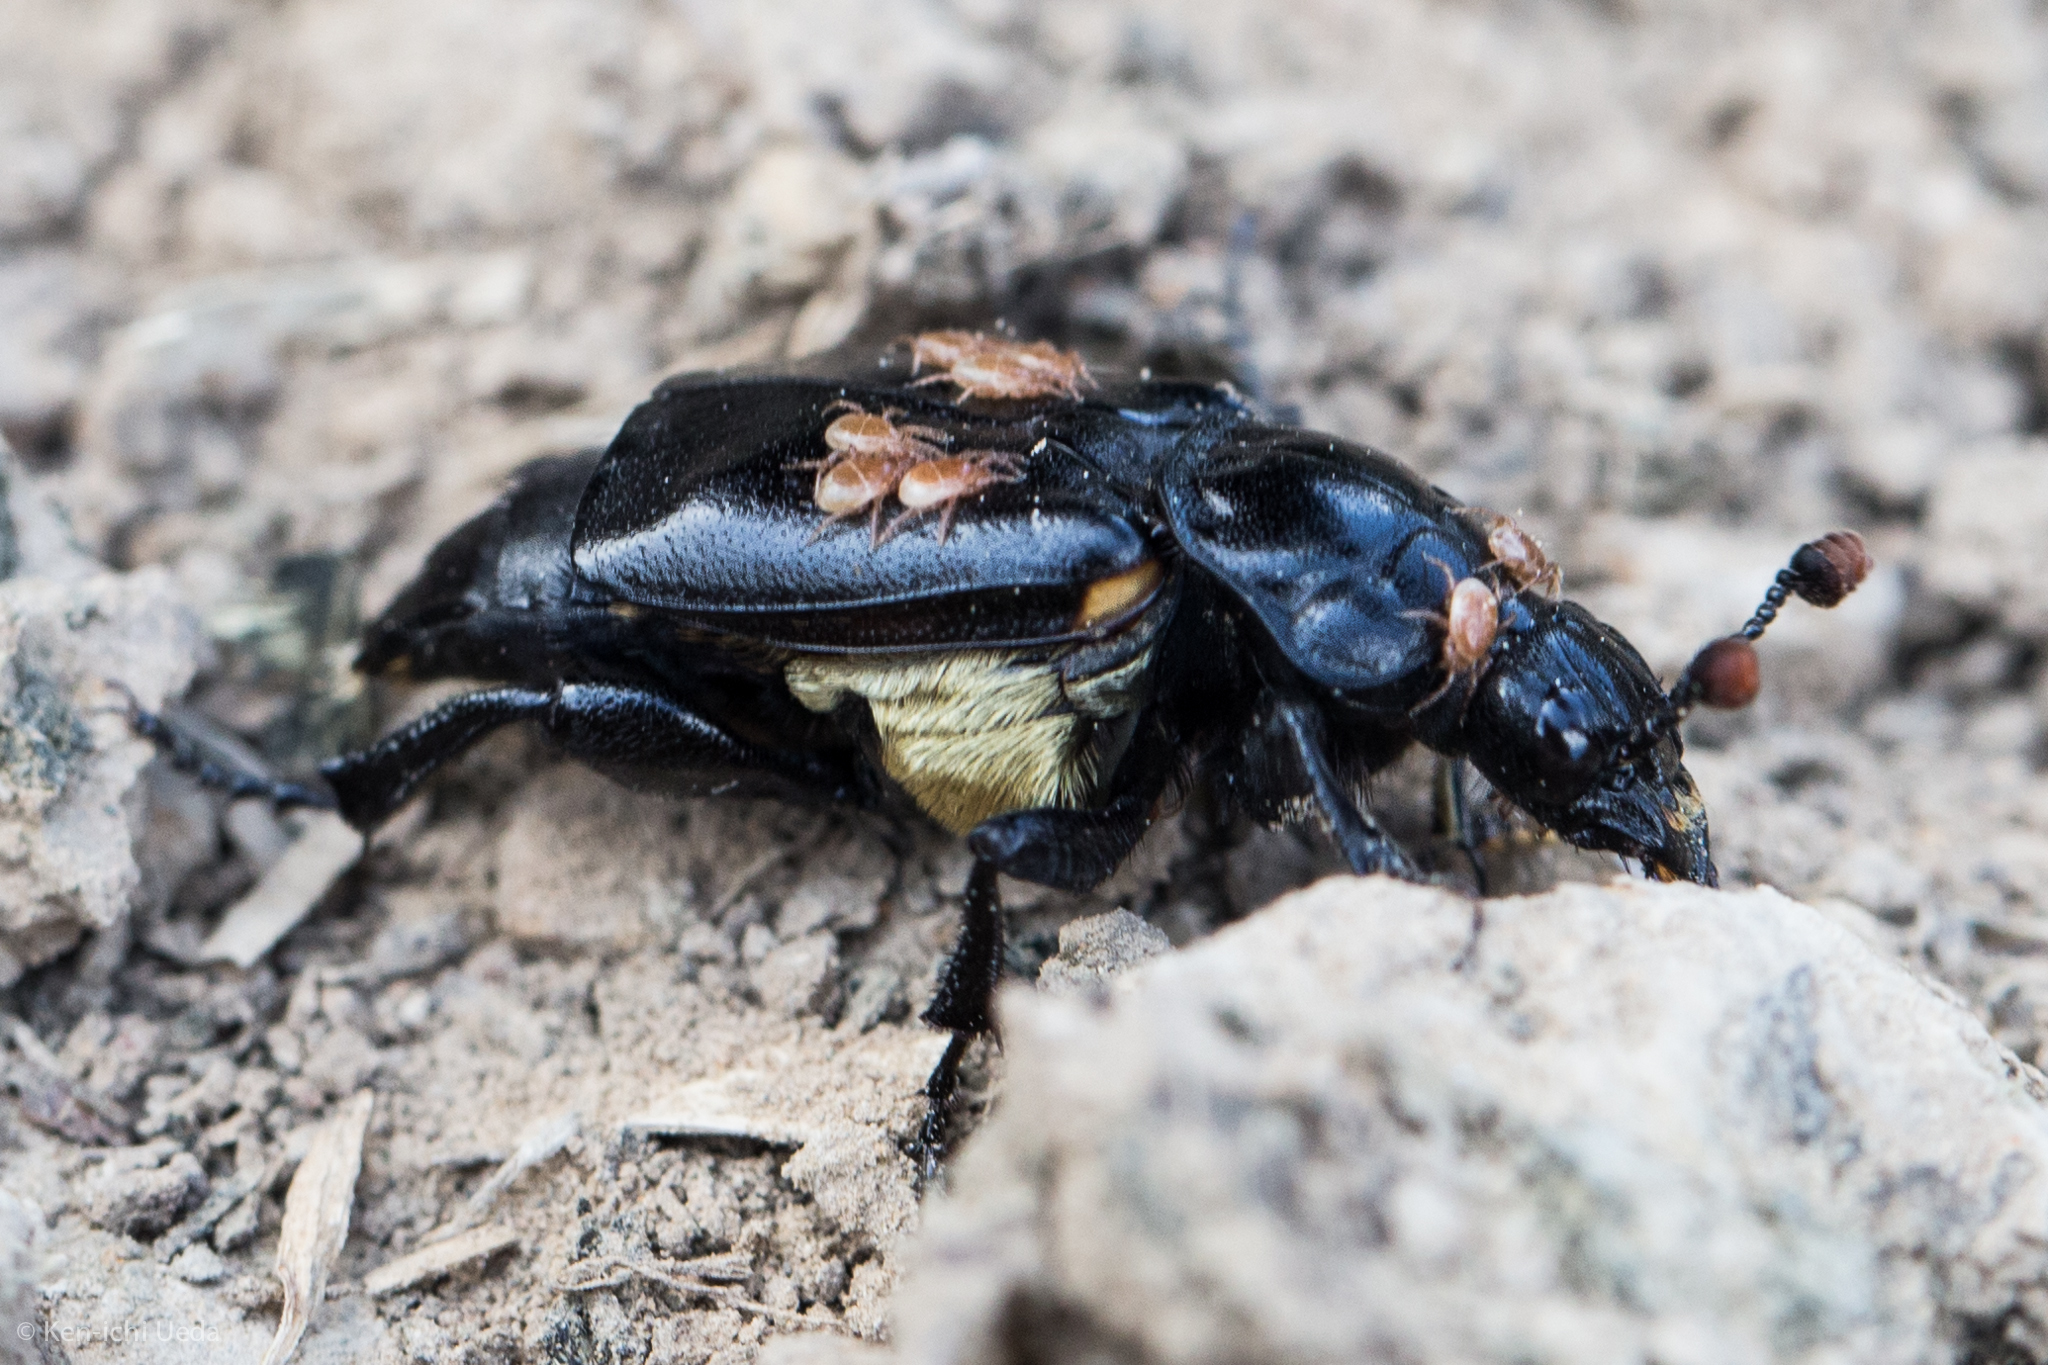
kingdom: Animalia
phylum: Arthropoda
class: Insecta
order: Coleoptera
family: Staphylinidae
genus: Nicrophorus
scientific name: Nicrophorus guttula
